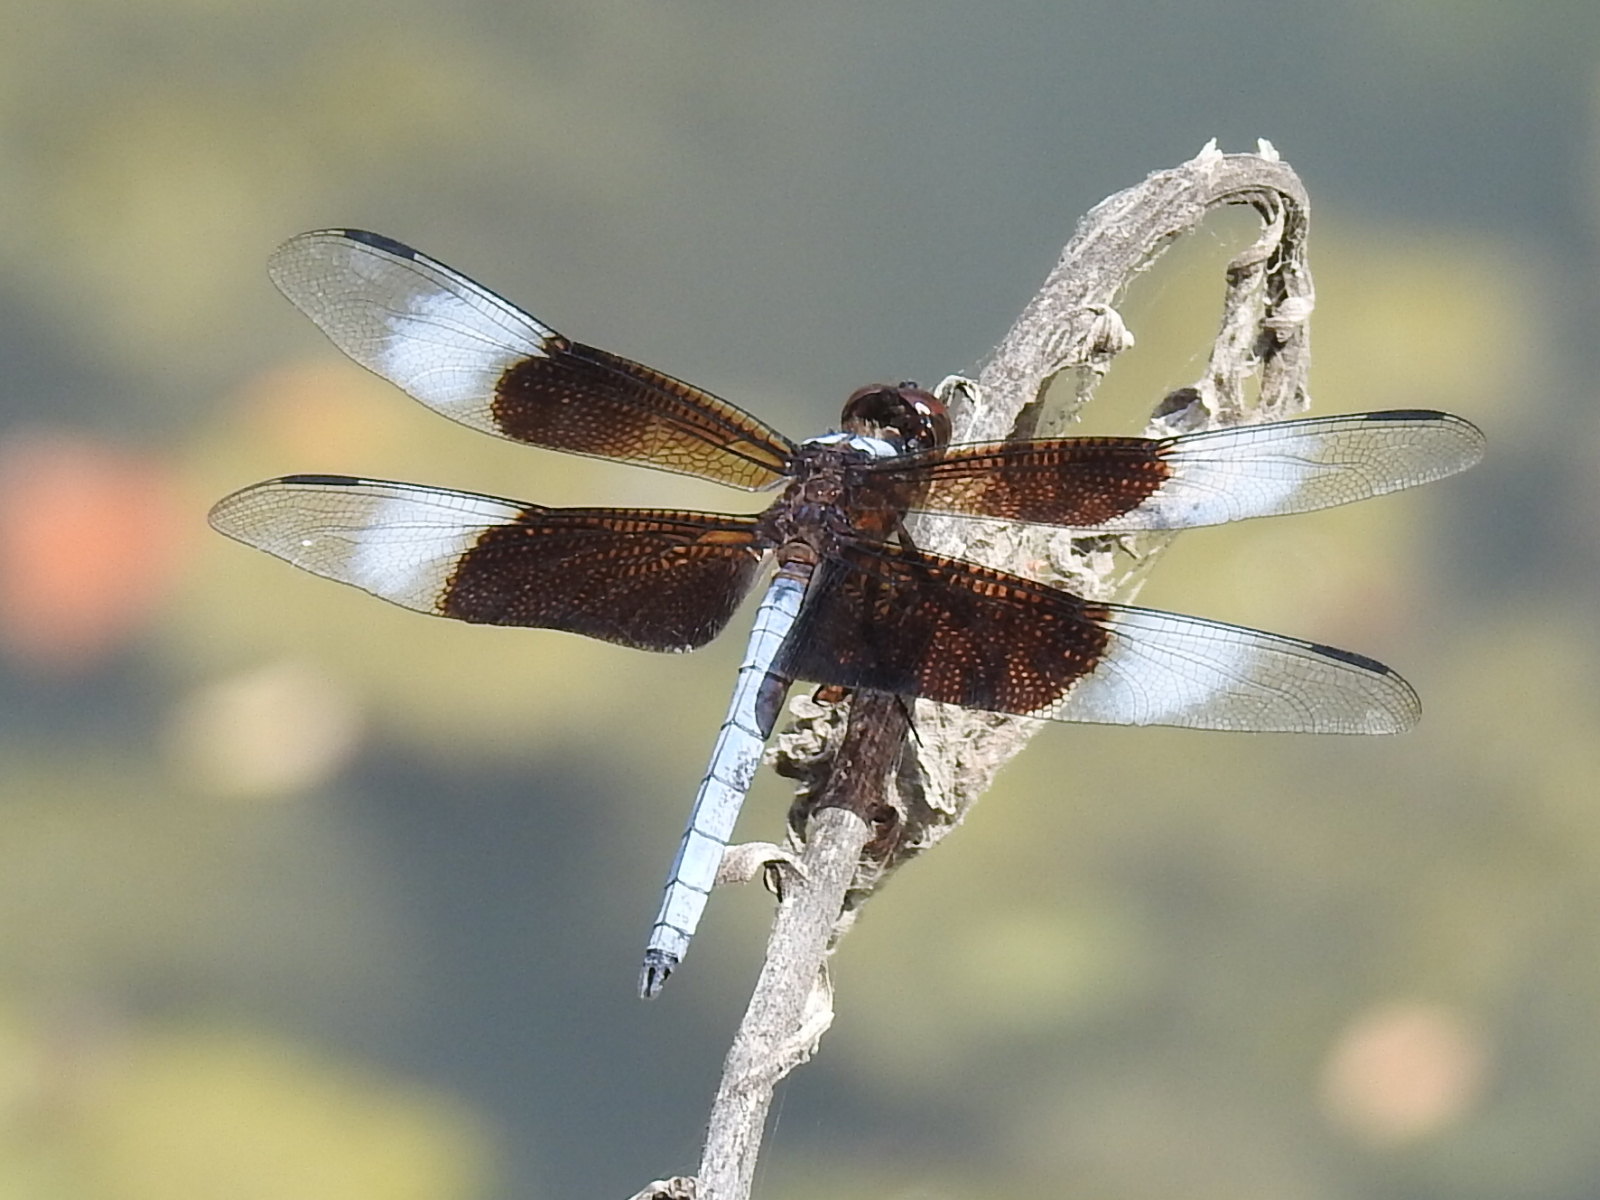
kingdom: Animalia
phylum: Arthropoda
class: Insecta
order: Odonata
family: Libellulidae
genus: Libellula
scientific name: Libellula luctuosa
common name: Widow skimmer
